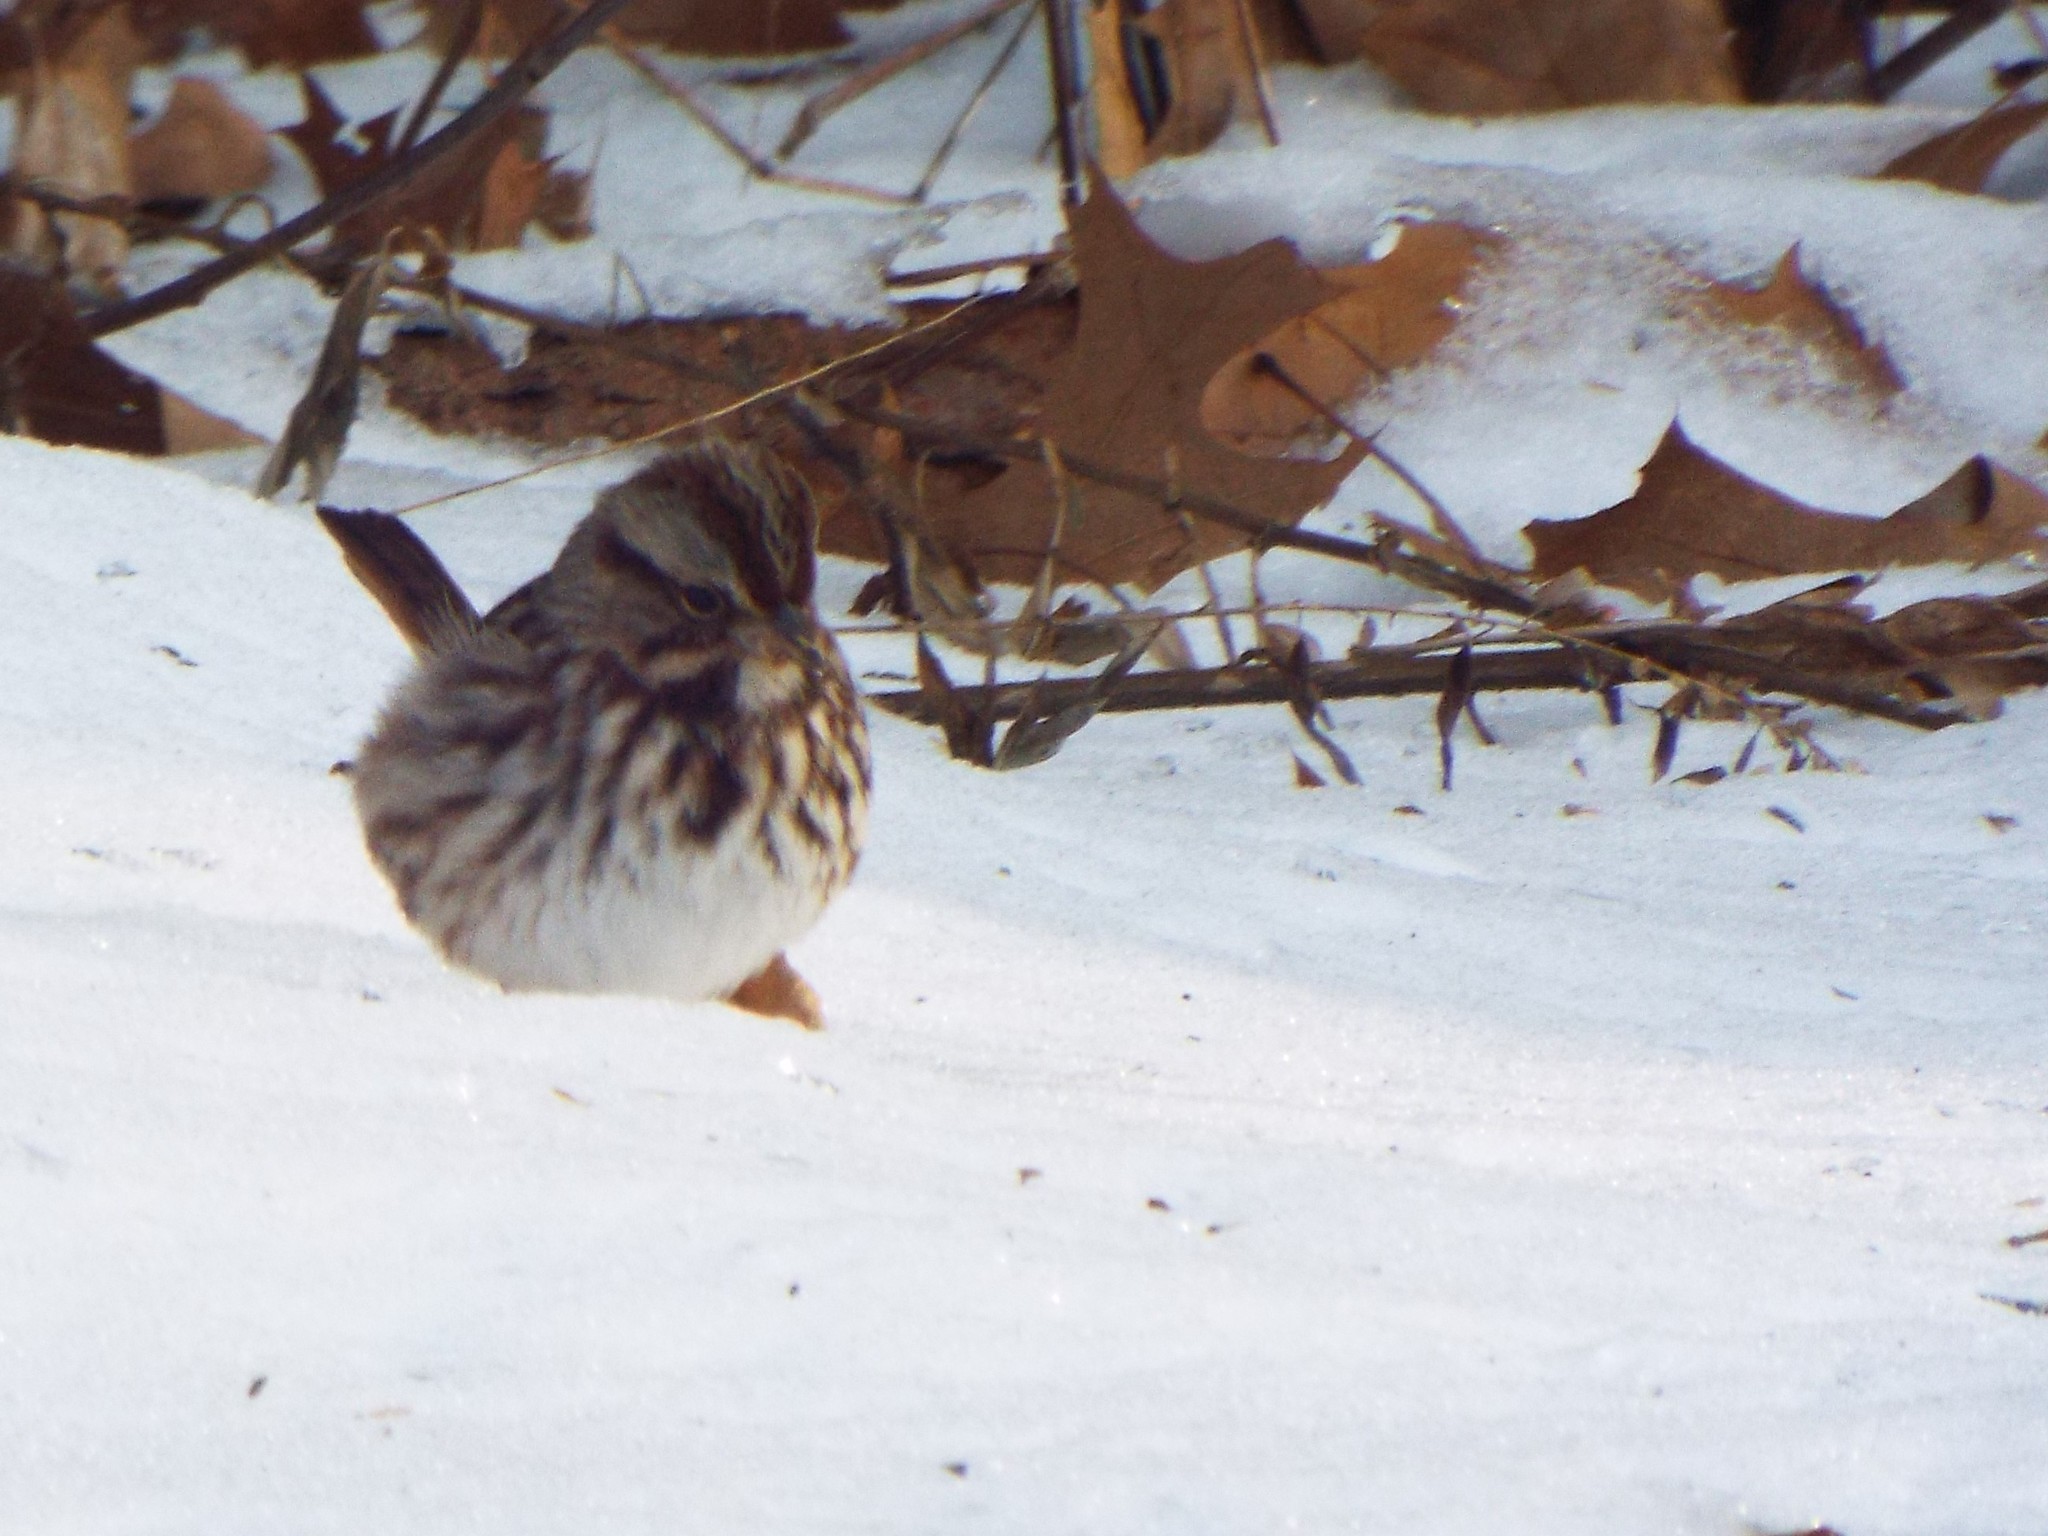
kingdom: Animalia
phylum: Chordata
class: Aves
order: Passeriformes
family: Passerellidae
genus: Melospiza
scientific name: Melospiza melodia
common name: Song sparrow
